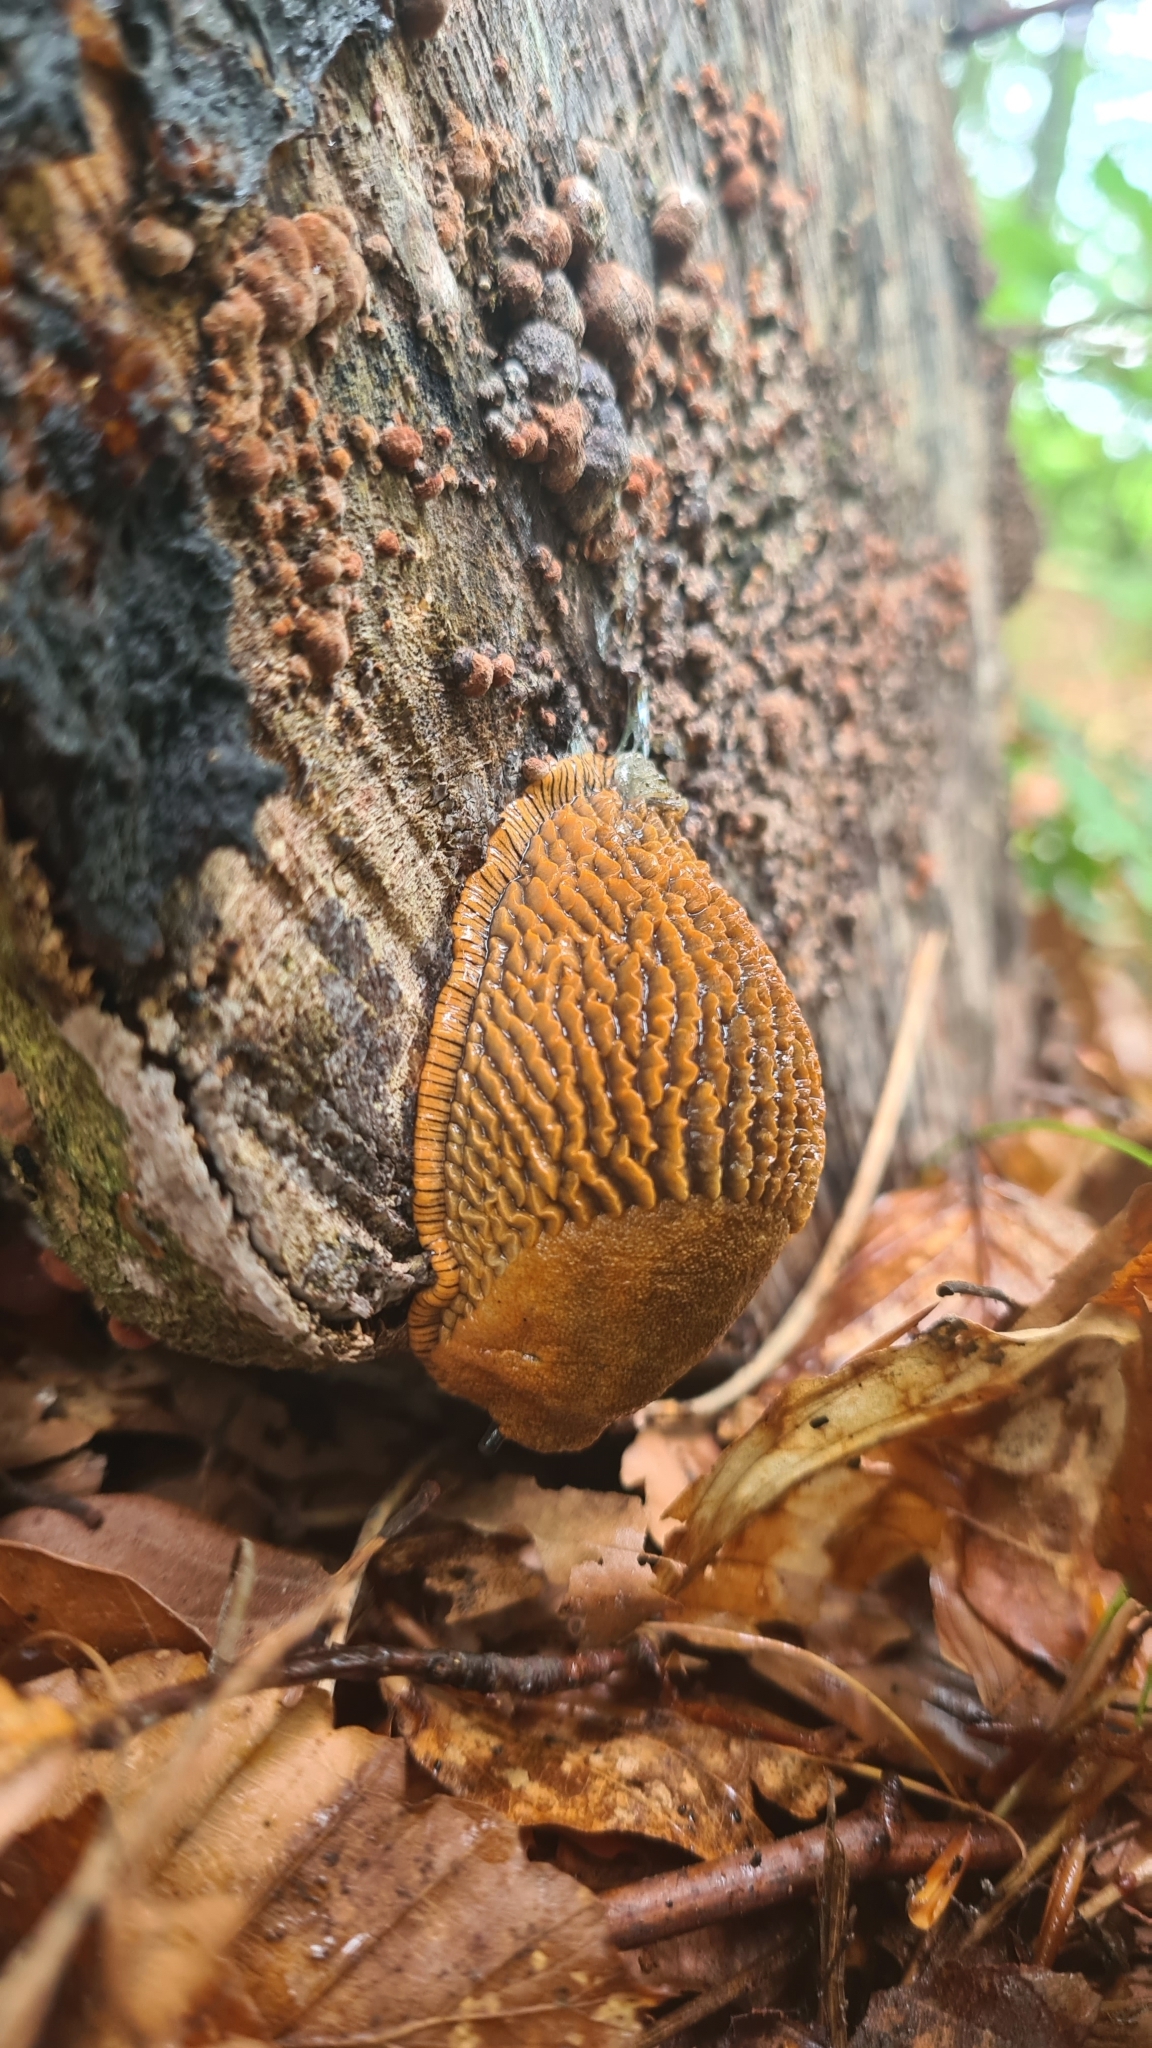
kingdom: Animalia
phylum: Mollusca
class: Gastropoda
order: Stylommatophora
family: Arionidae
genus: Arion
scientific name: Arion rufus
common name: Chocolate arion
